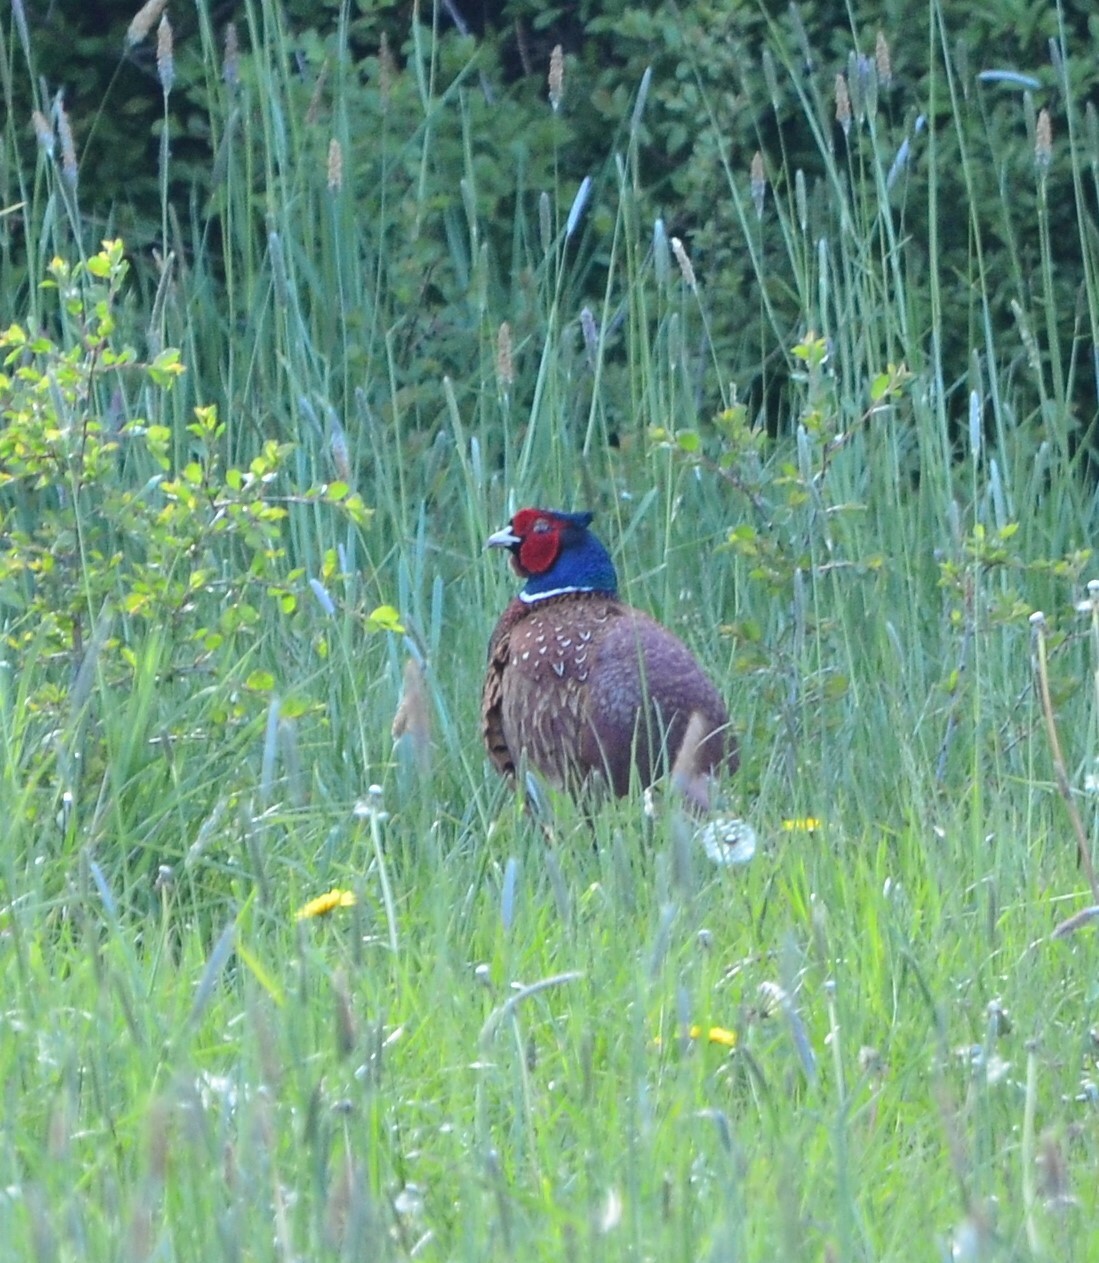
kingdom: Animalia
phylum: Chordata
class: Aves
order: Galliformes
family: Phasianidae
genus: Phasianus
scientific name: Phasianus colchicus
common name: Common pheasant
